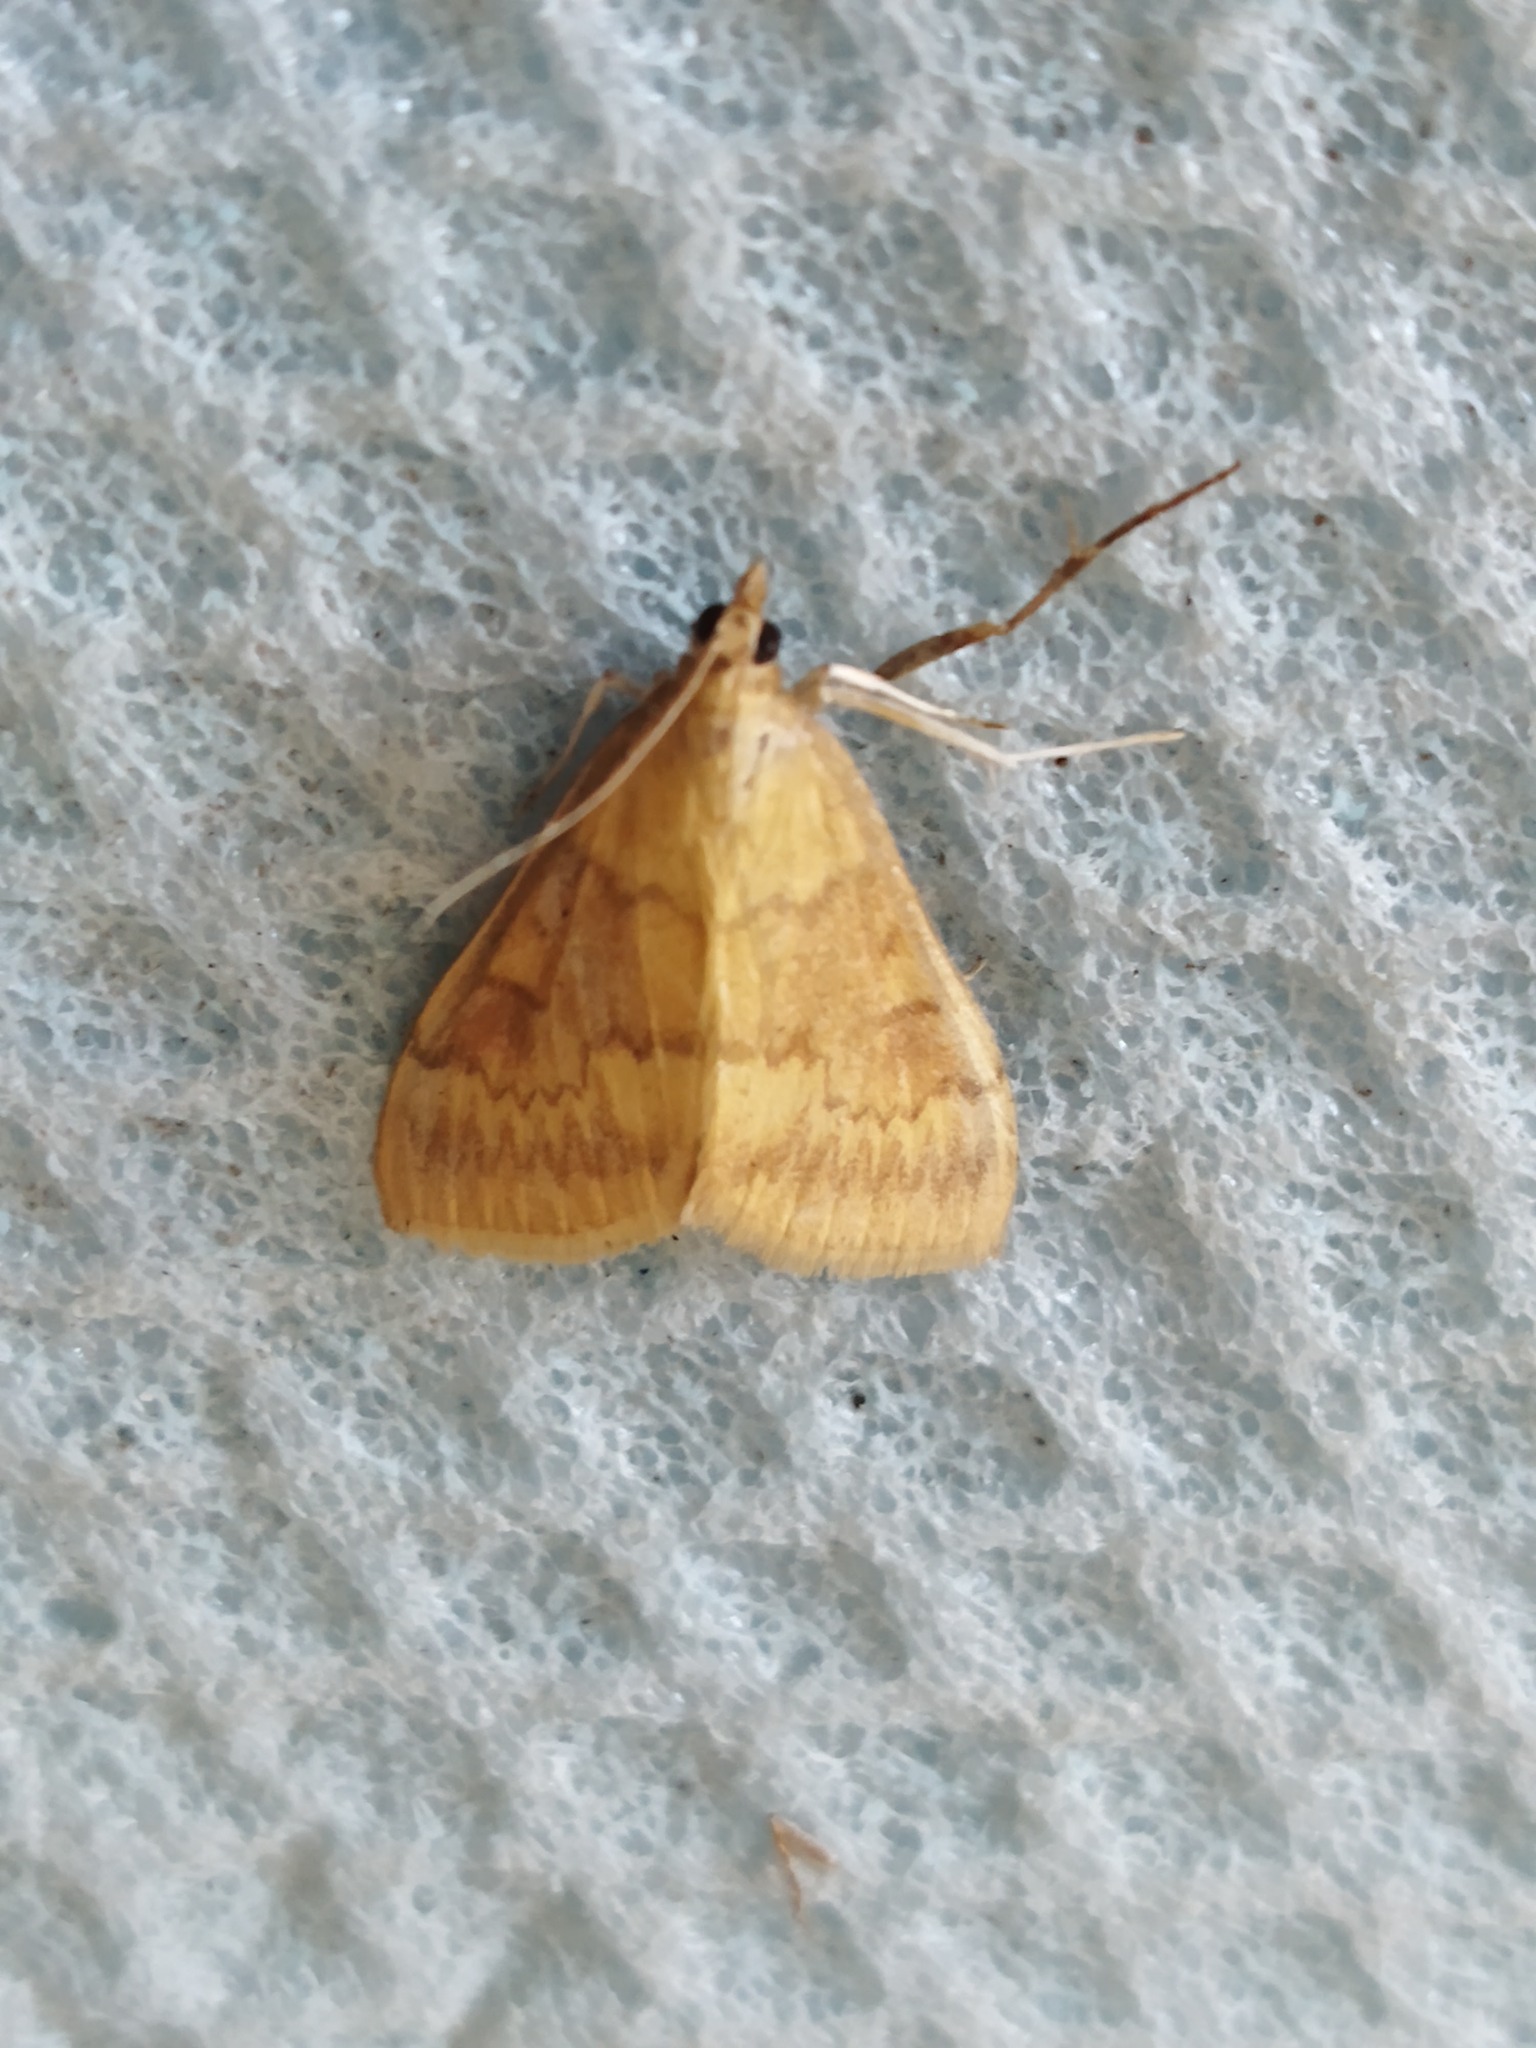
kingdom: Animalia
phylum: Arthropoda
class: Insecta
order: Lepidoptera
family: Crambidae
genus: Ostrinia
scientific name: Ostrinia nubilalis
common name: European corn borer
